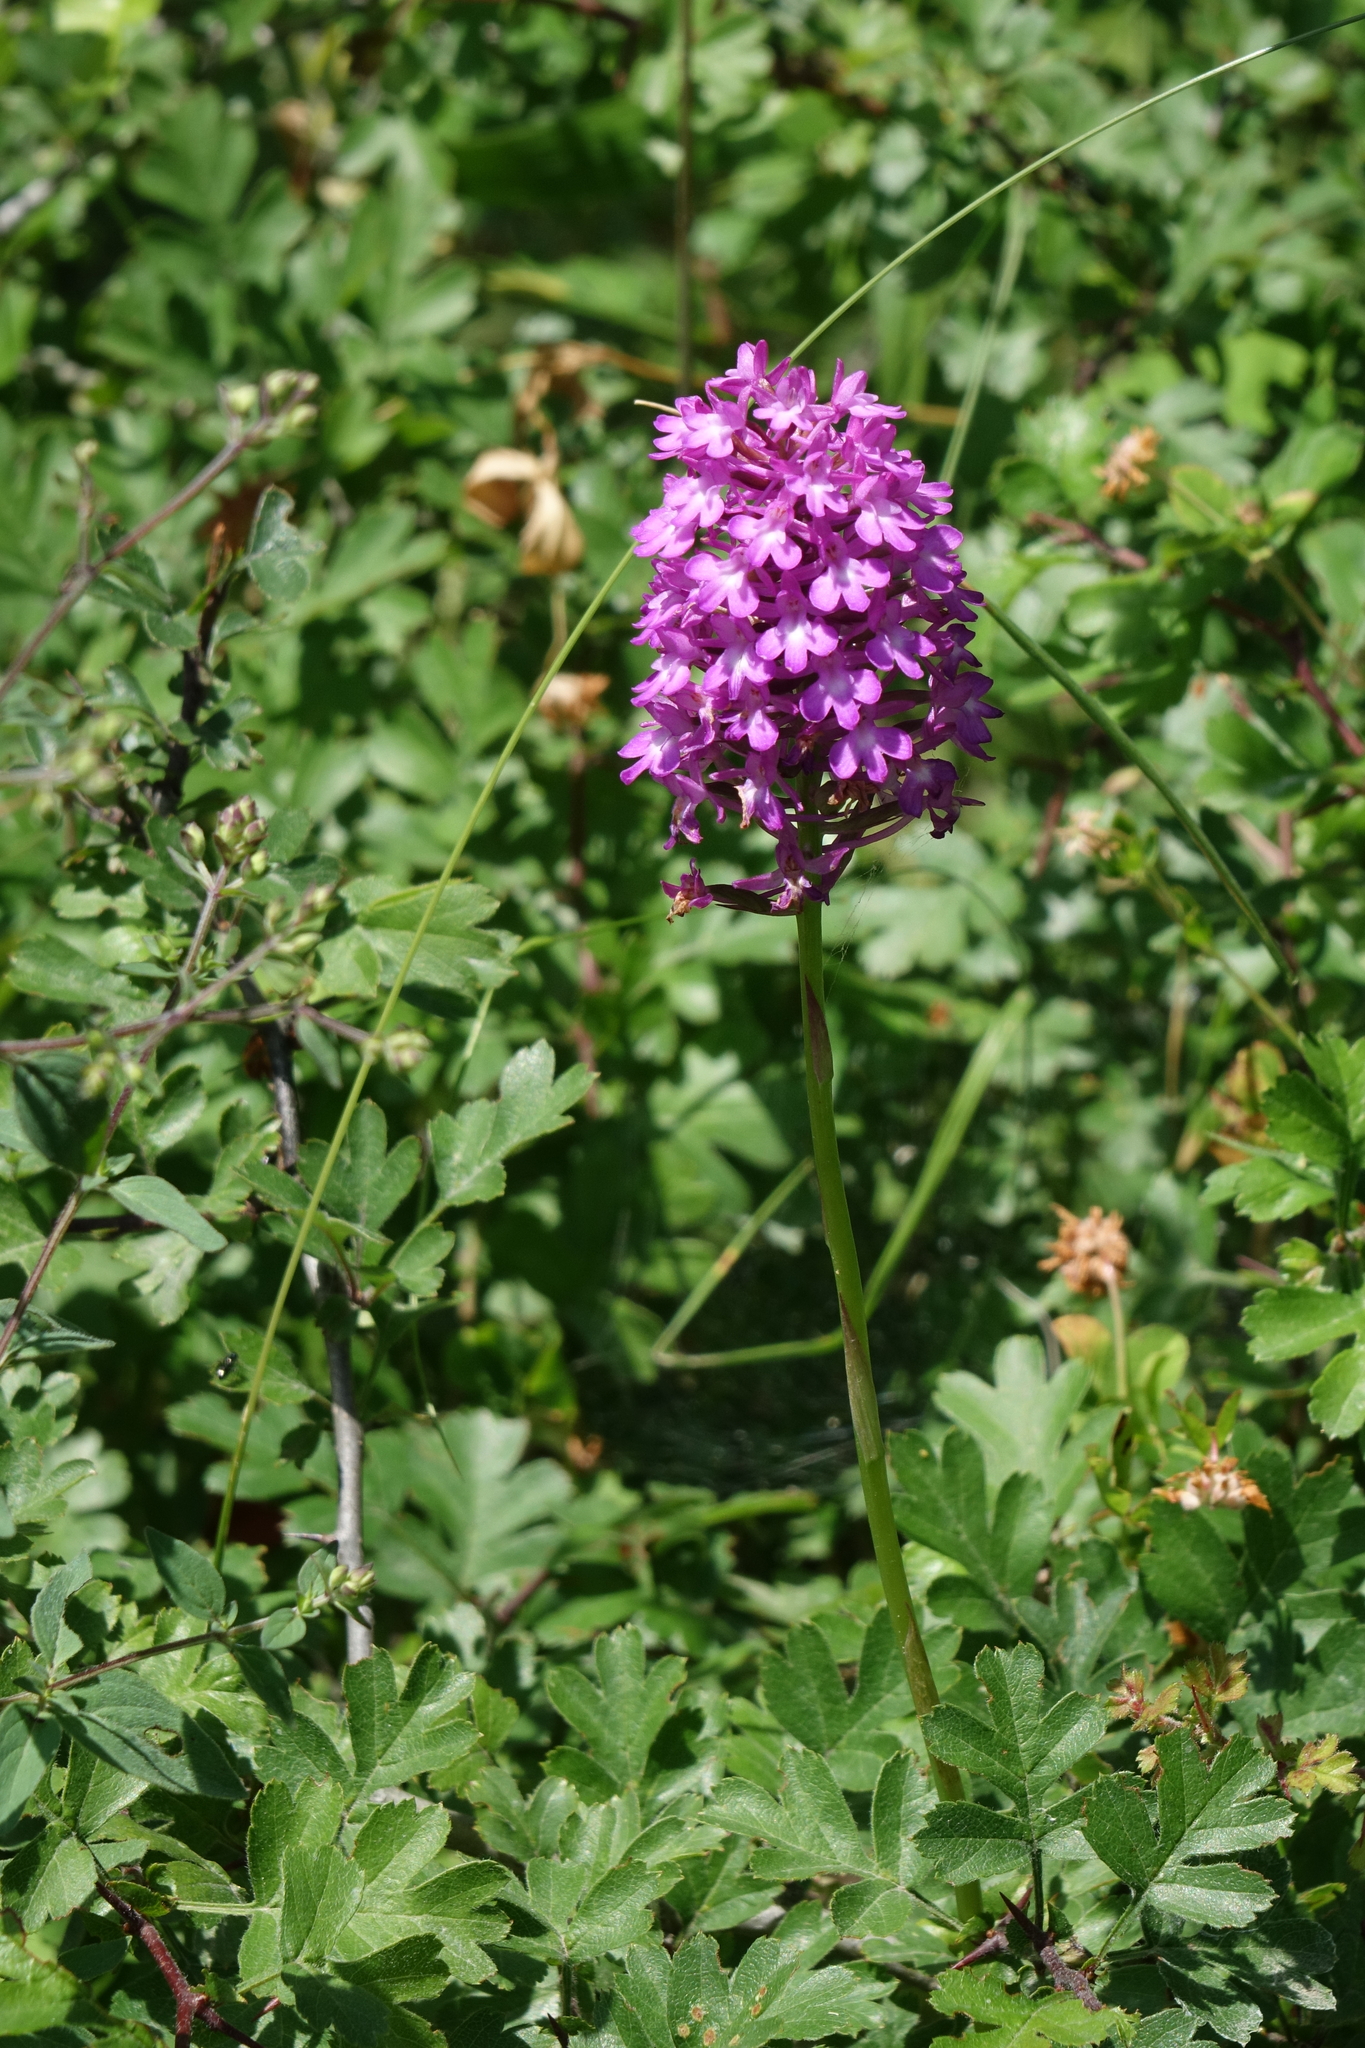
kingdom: Plantae
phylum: Tracheophyta
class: Liliopsida
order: Asparagales
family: Orchidaceae
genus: Anacamptis
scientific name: Anacamptis pyramidalis
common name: Pyramidal orchid
